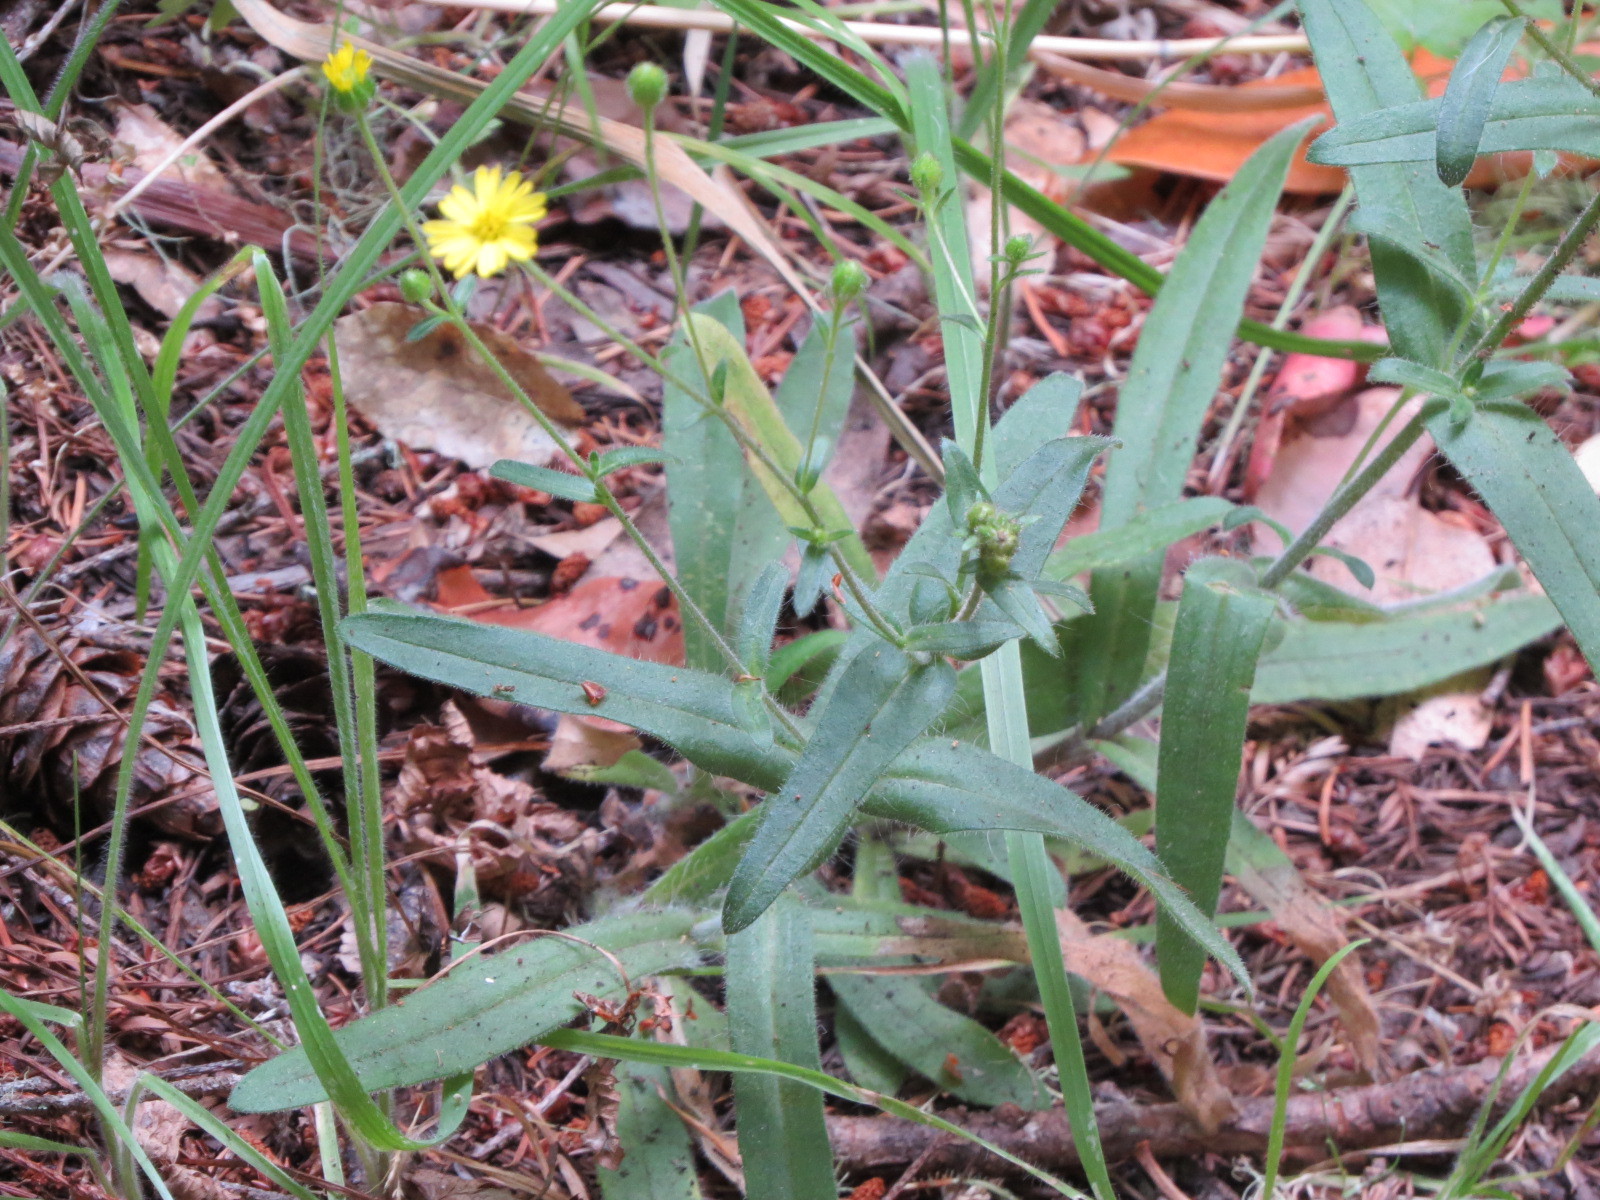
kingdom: Plantae
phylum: Tracheophyta
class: Magnoliopsida
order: Asterales
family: Asteraceae
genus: Anisocarpus
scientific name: Anisocarpus madioides
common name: Woodland madia
